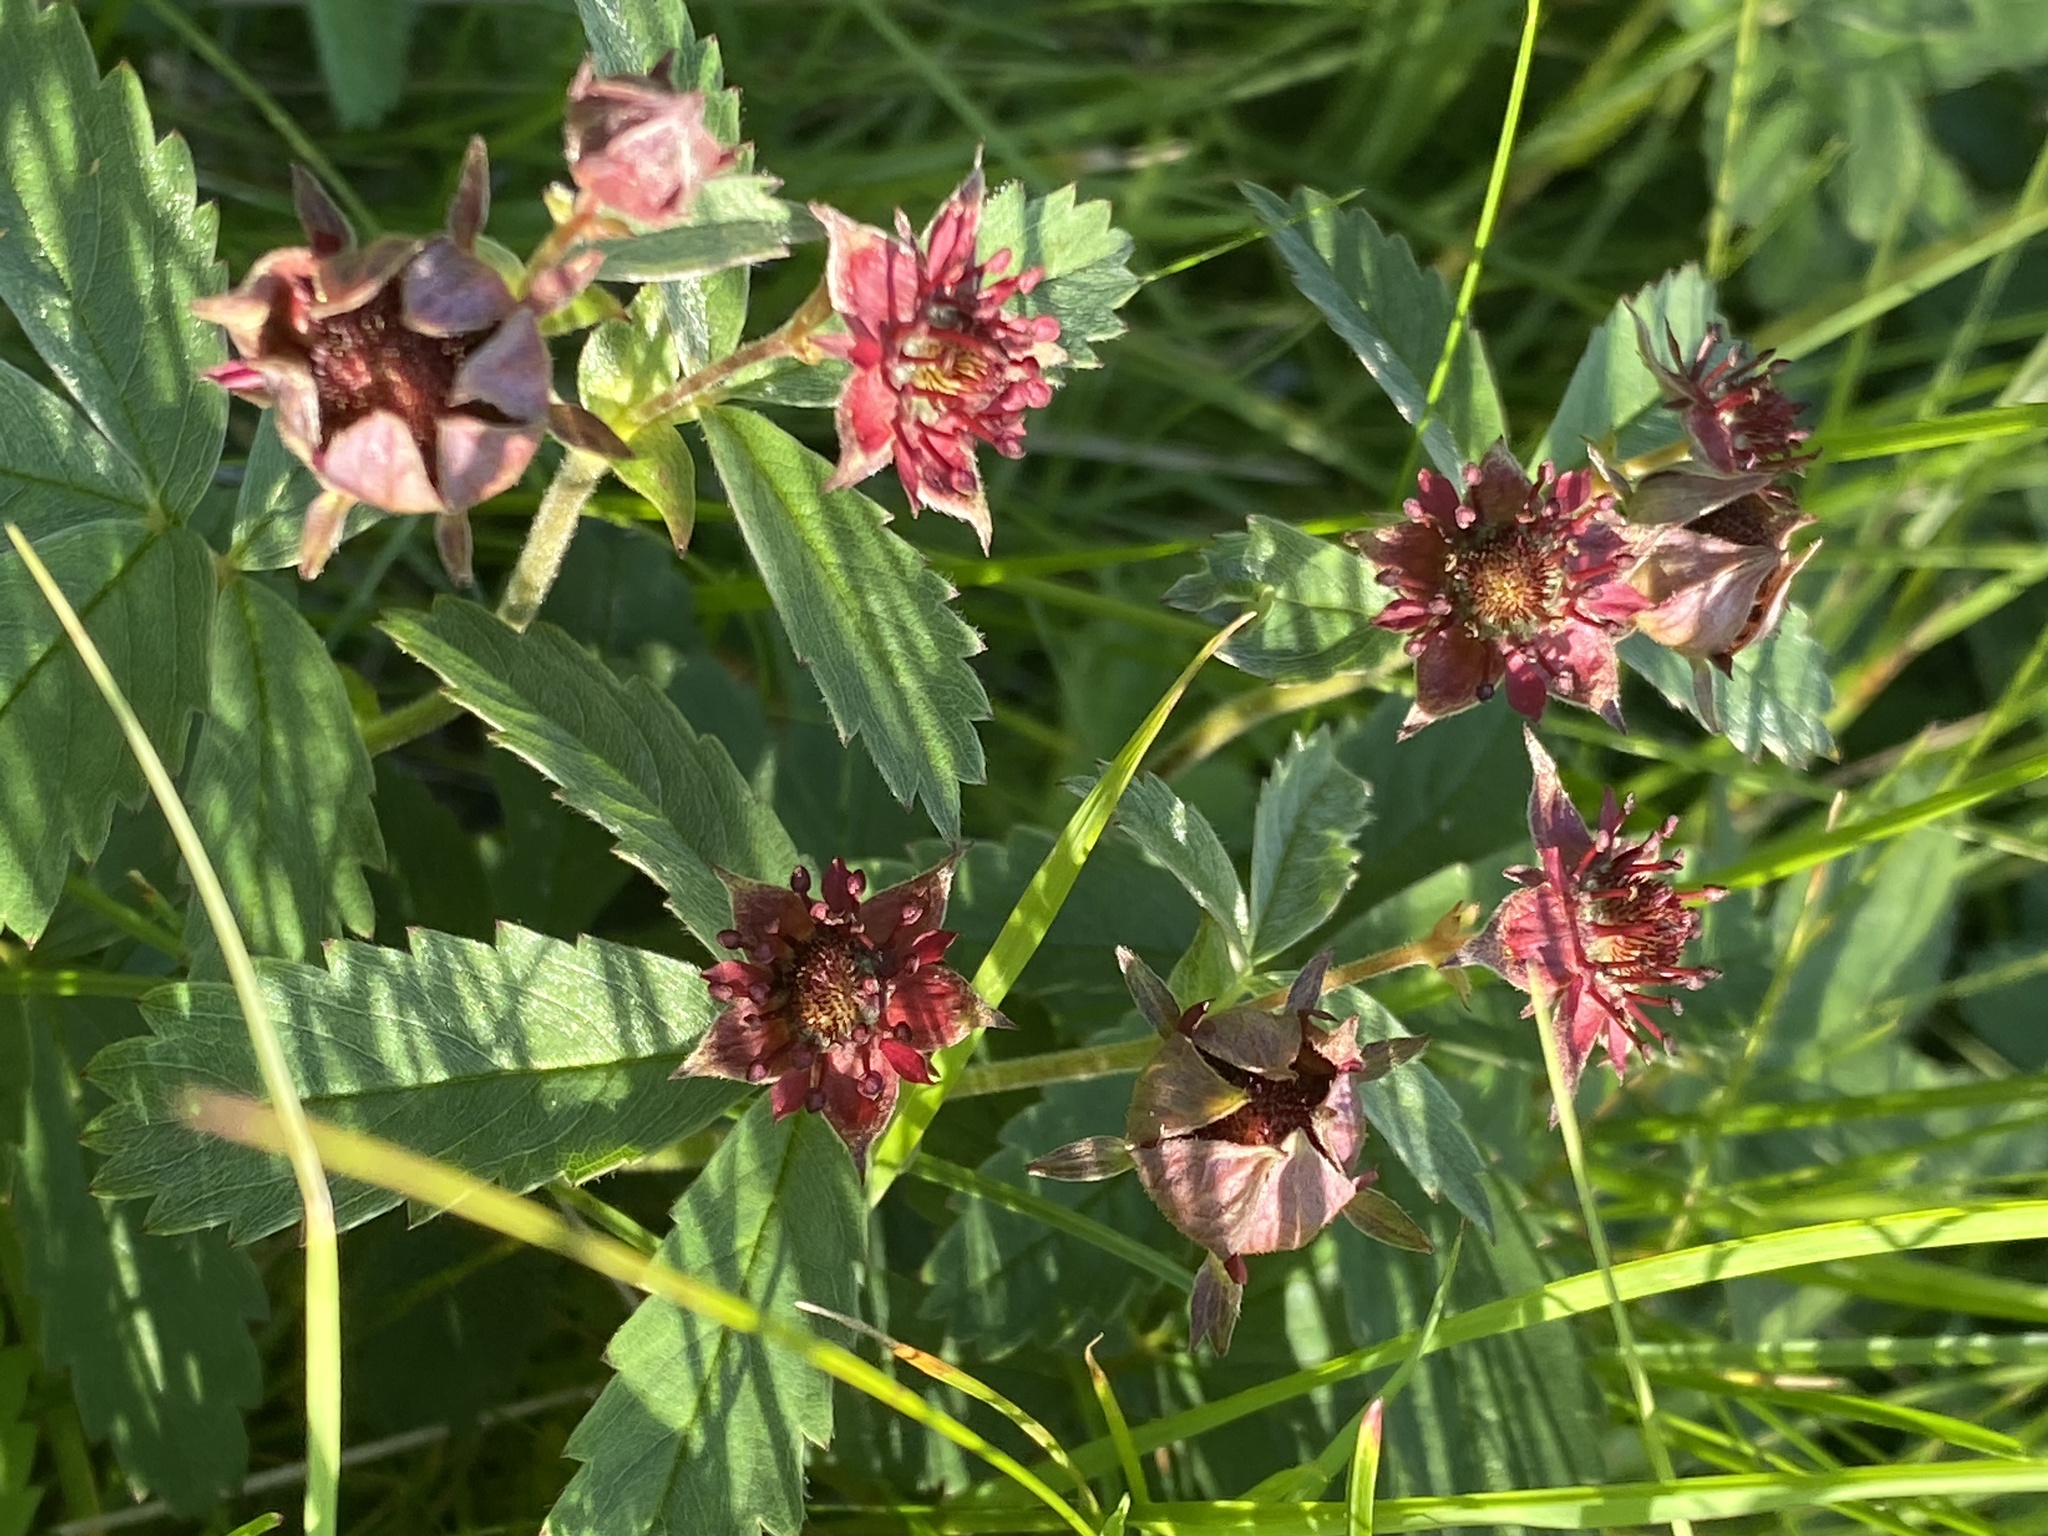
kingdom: Plantae
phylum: Tracheophyta
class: Magnoliopsida
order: Rosales
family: Rosaceae
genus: Comarum
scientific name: Comarum palustre
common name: Marsh cinquefoil
